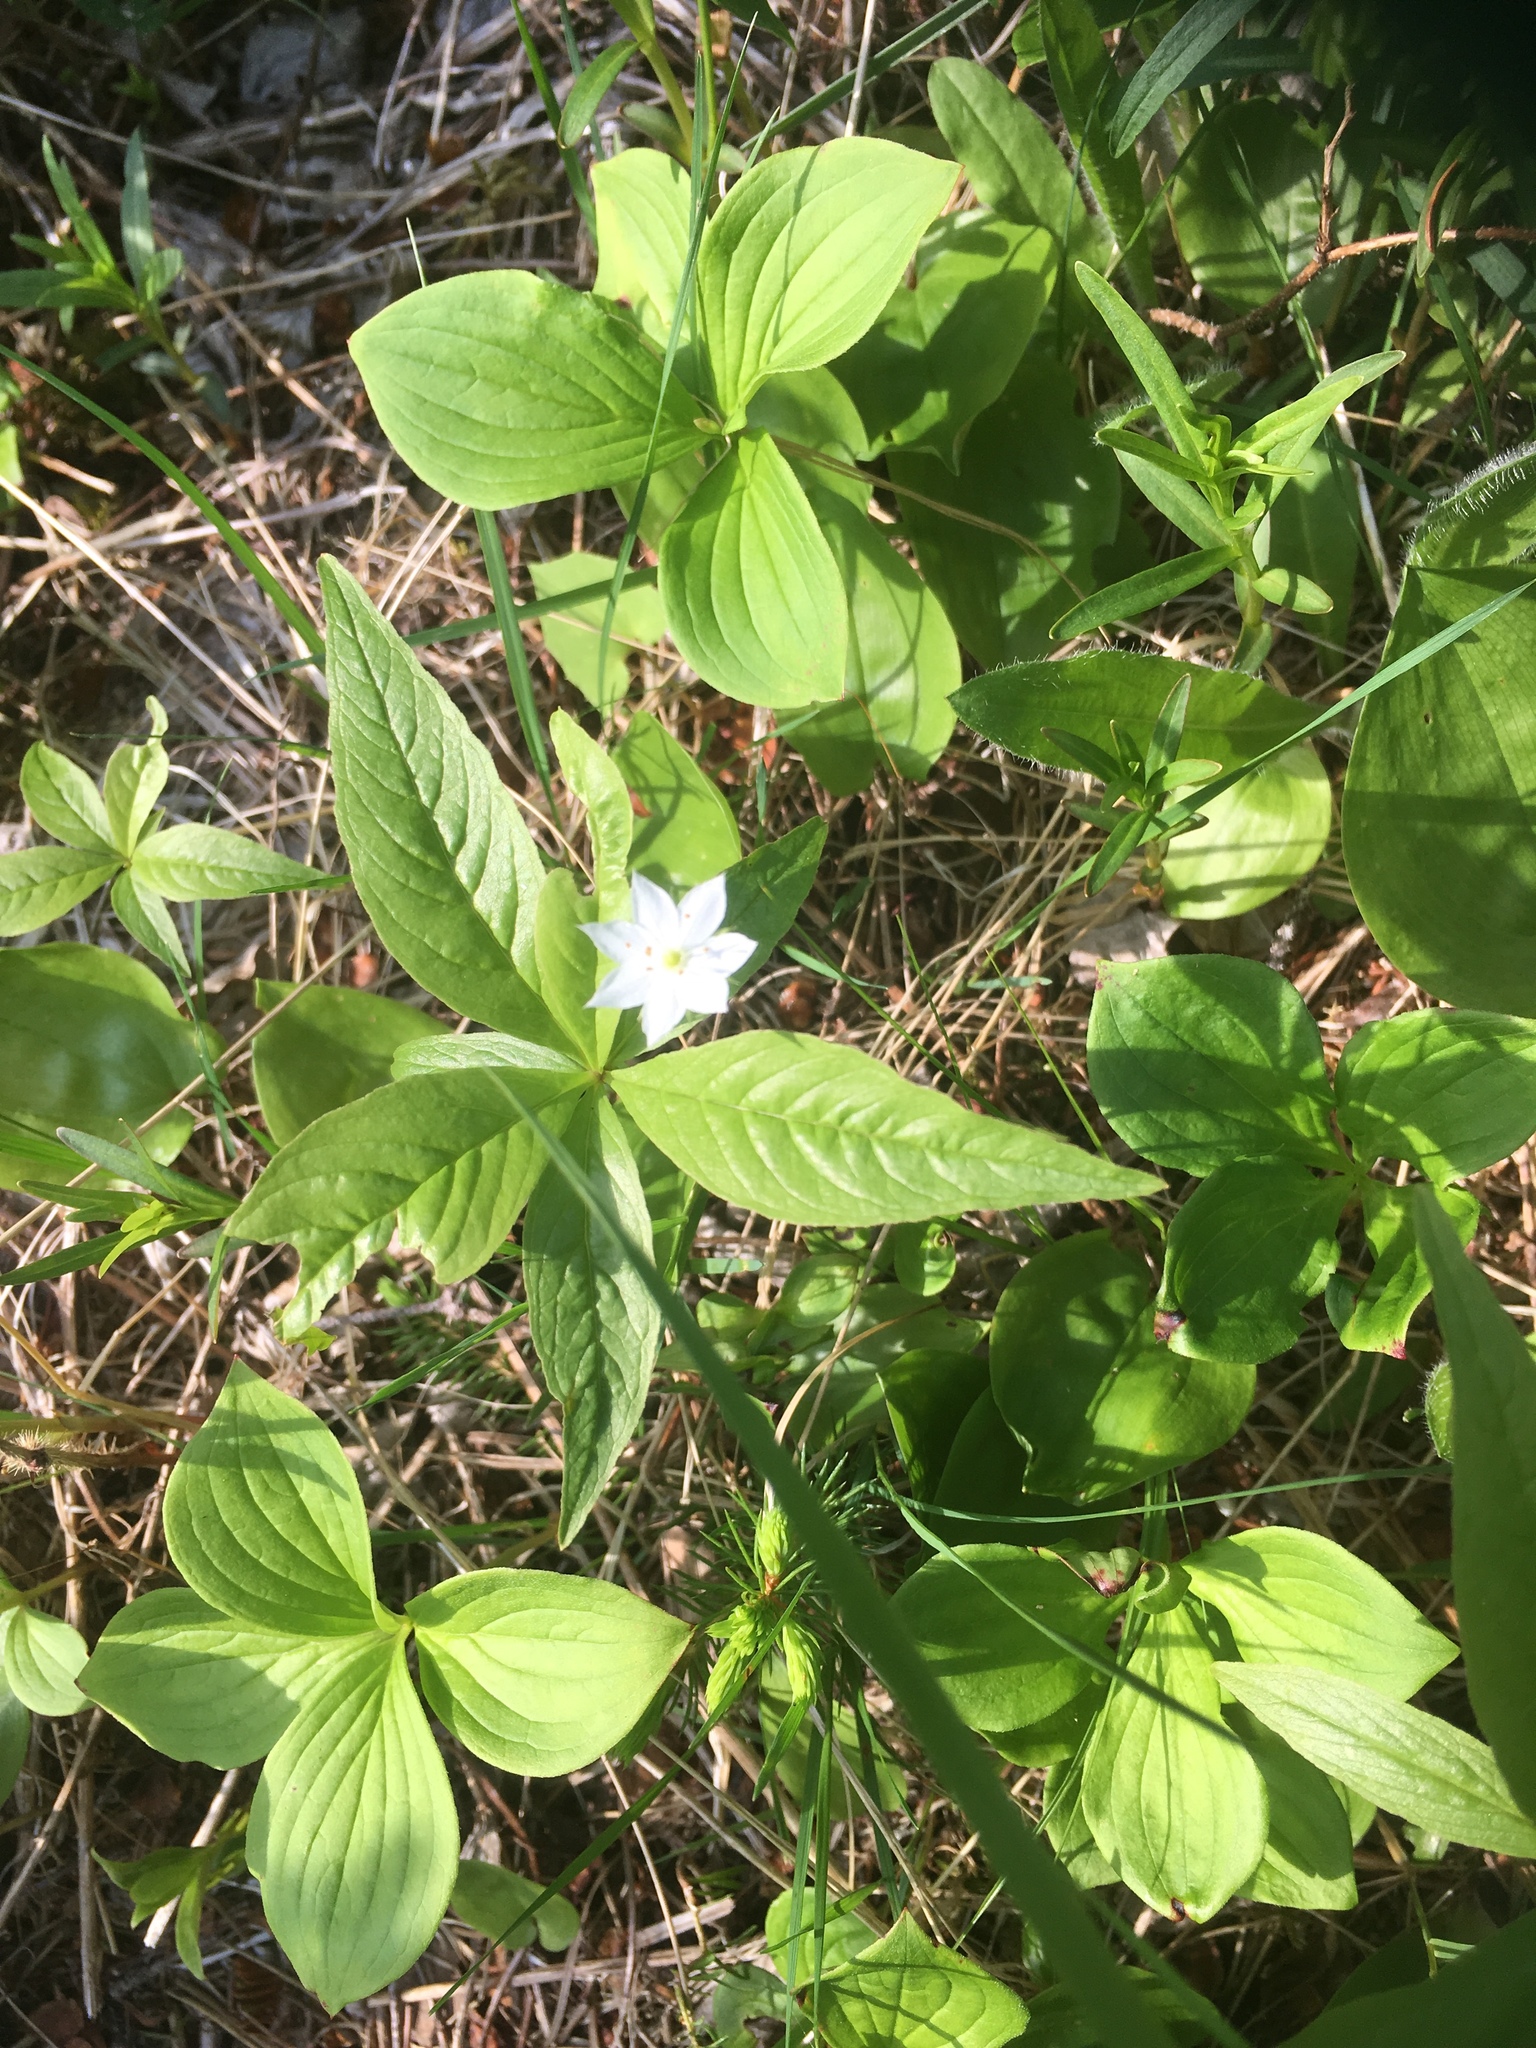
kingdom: Plantae
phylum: Tracheophyta
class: Magnoliopsida
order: Ericales
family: Primulaceae
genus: Lysimachia
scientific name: Lysimachia borealis
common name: American starflower
